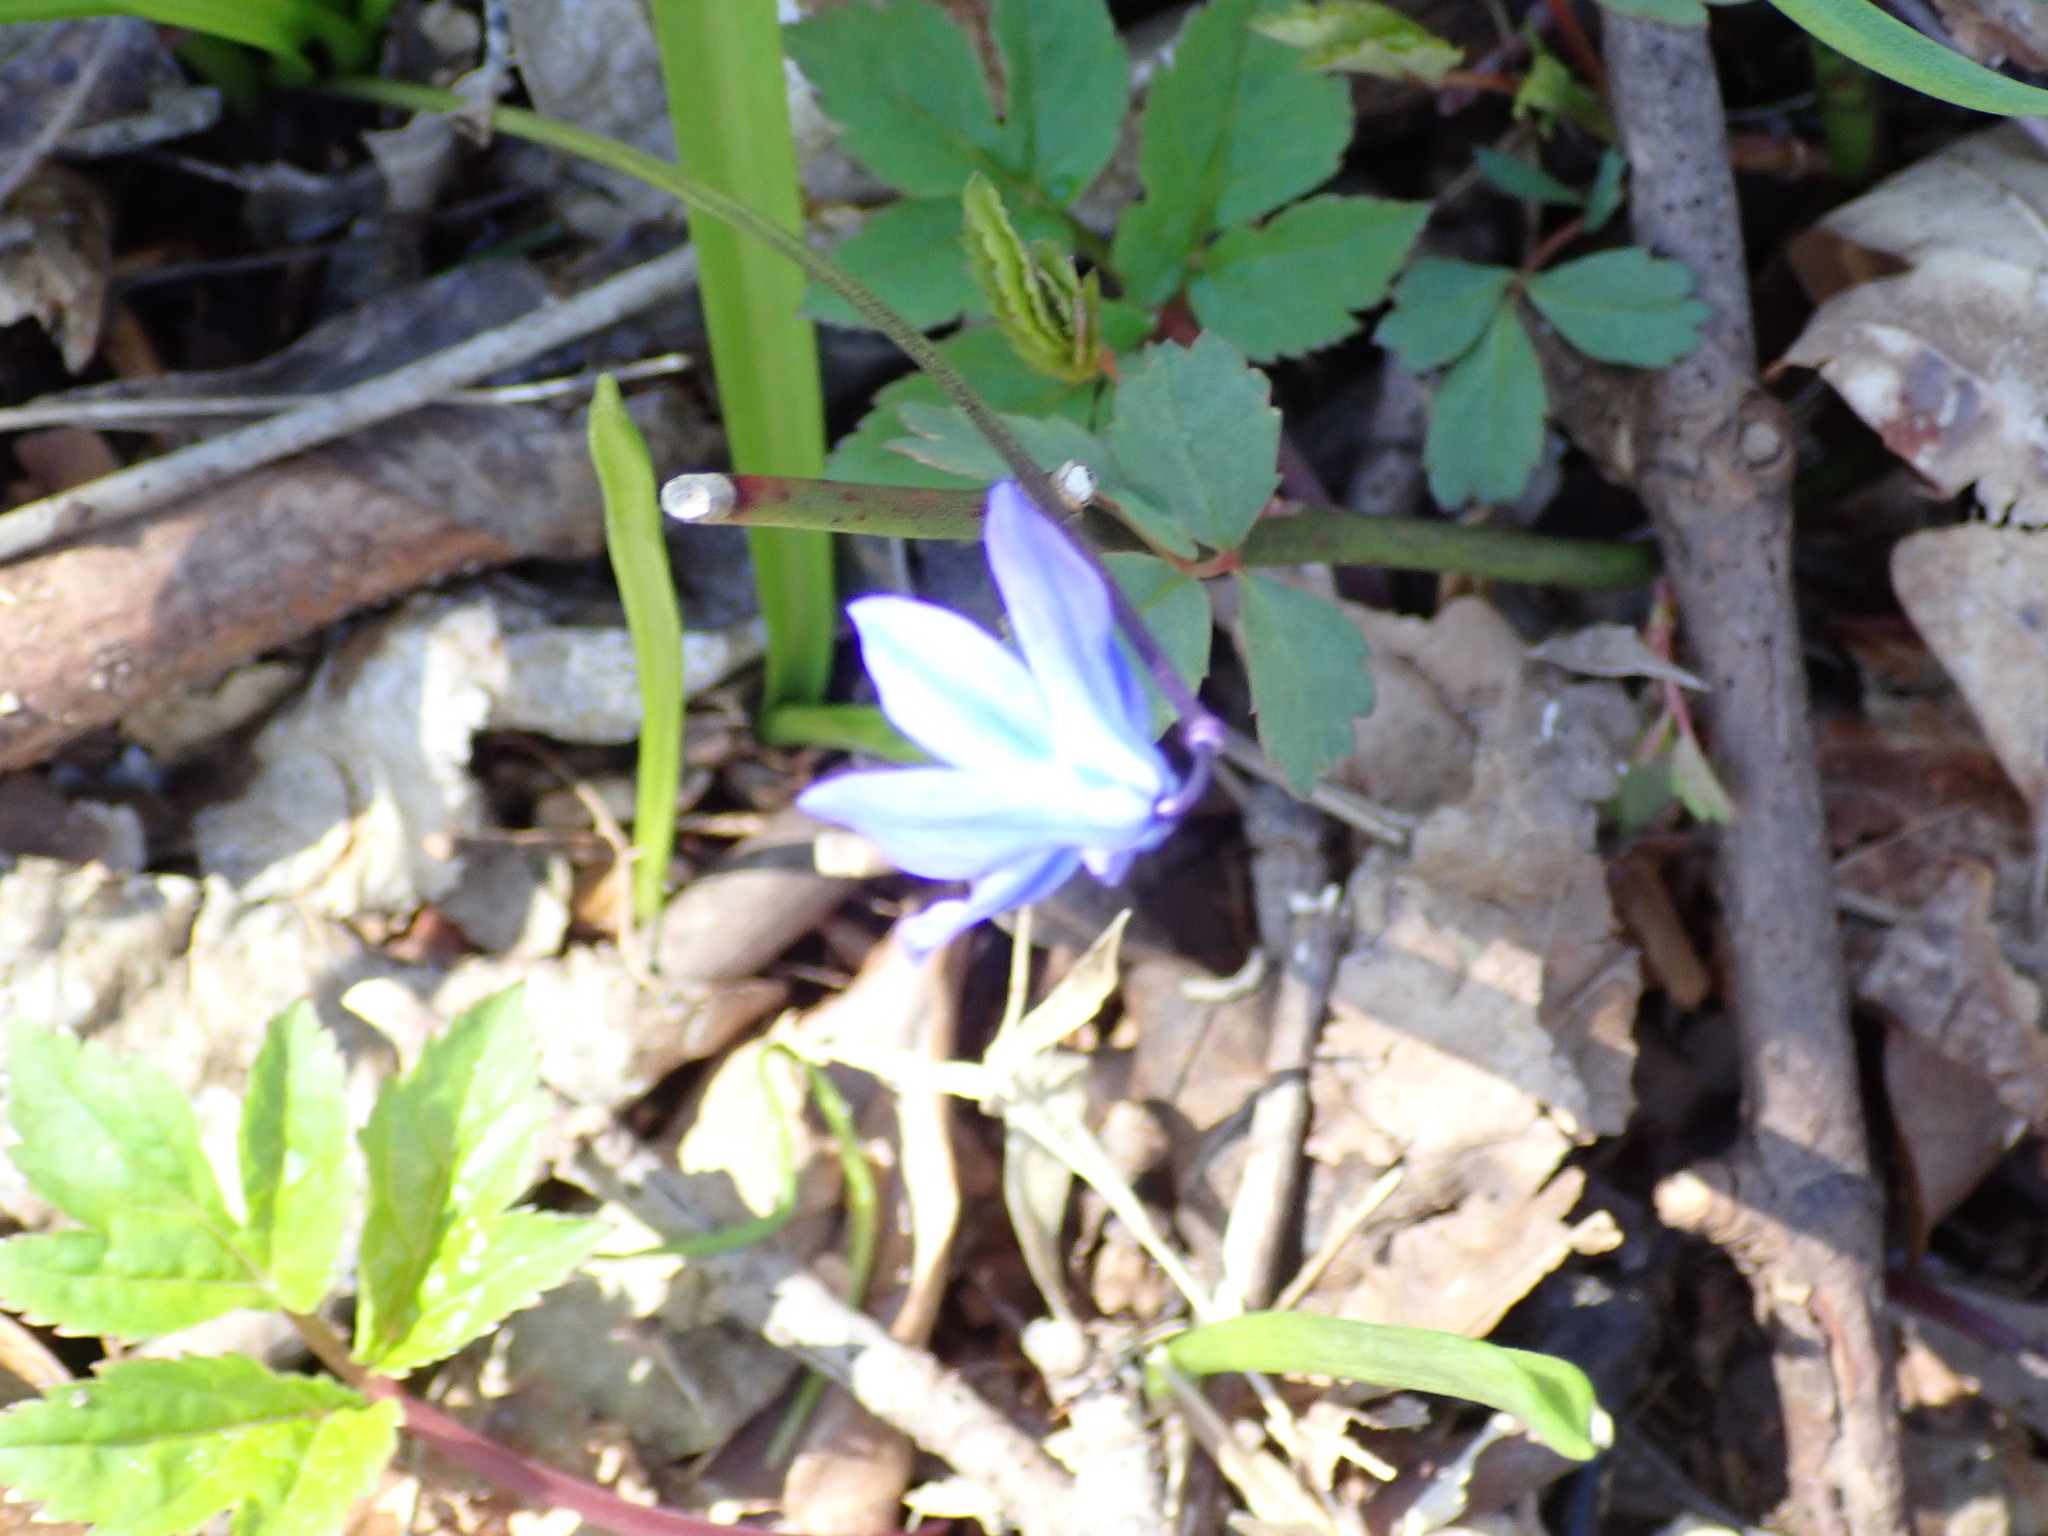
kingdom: Plantae
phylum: Tracheophyta
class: Liliopsida
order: Asparagales
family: Asparagaceae
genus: Scilla
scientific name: Scilla siberica
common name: Siberian squill
